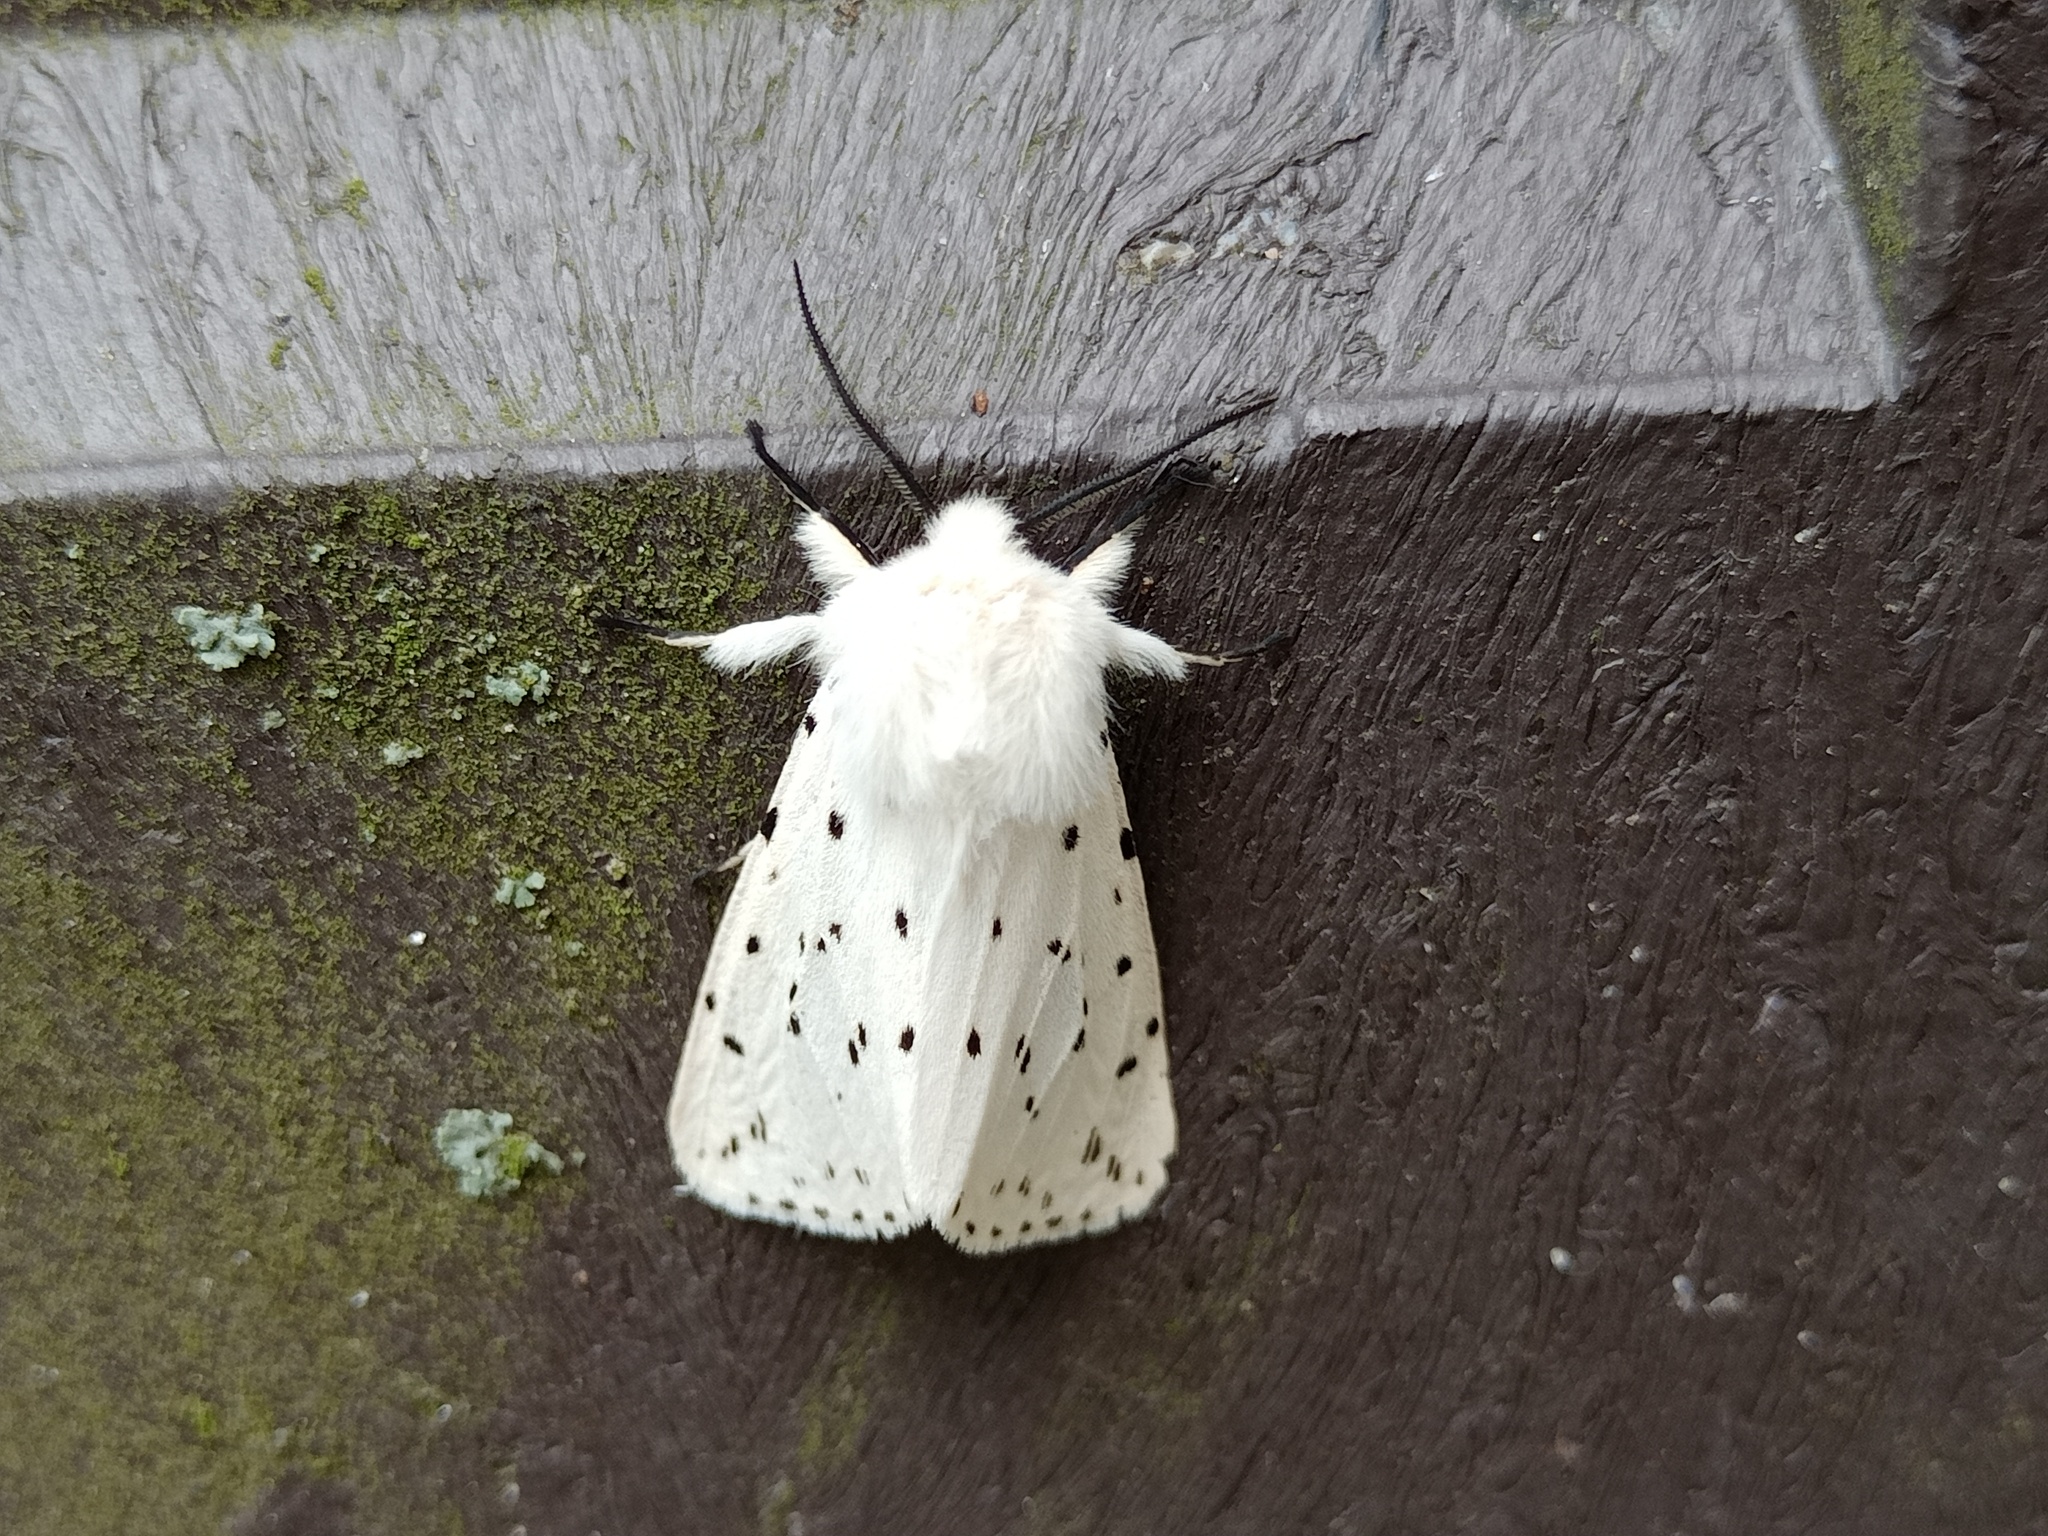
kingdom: Animalia
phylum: Arthropoda
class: Insecta
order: Lepidoptera
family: Erebidae
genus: Spilosoma
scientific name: Spilosoma lubricipeda
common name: White ermine
